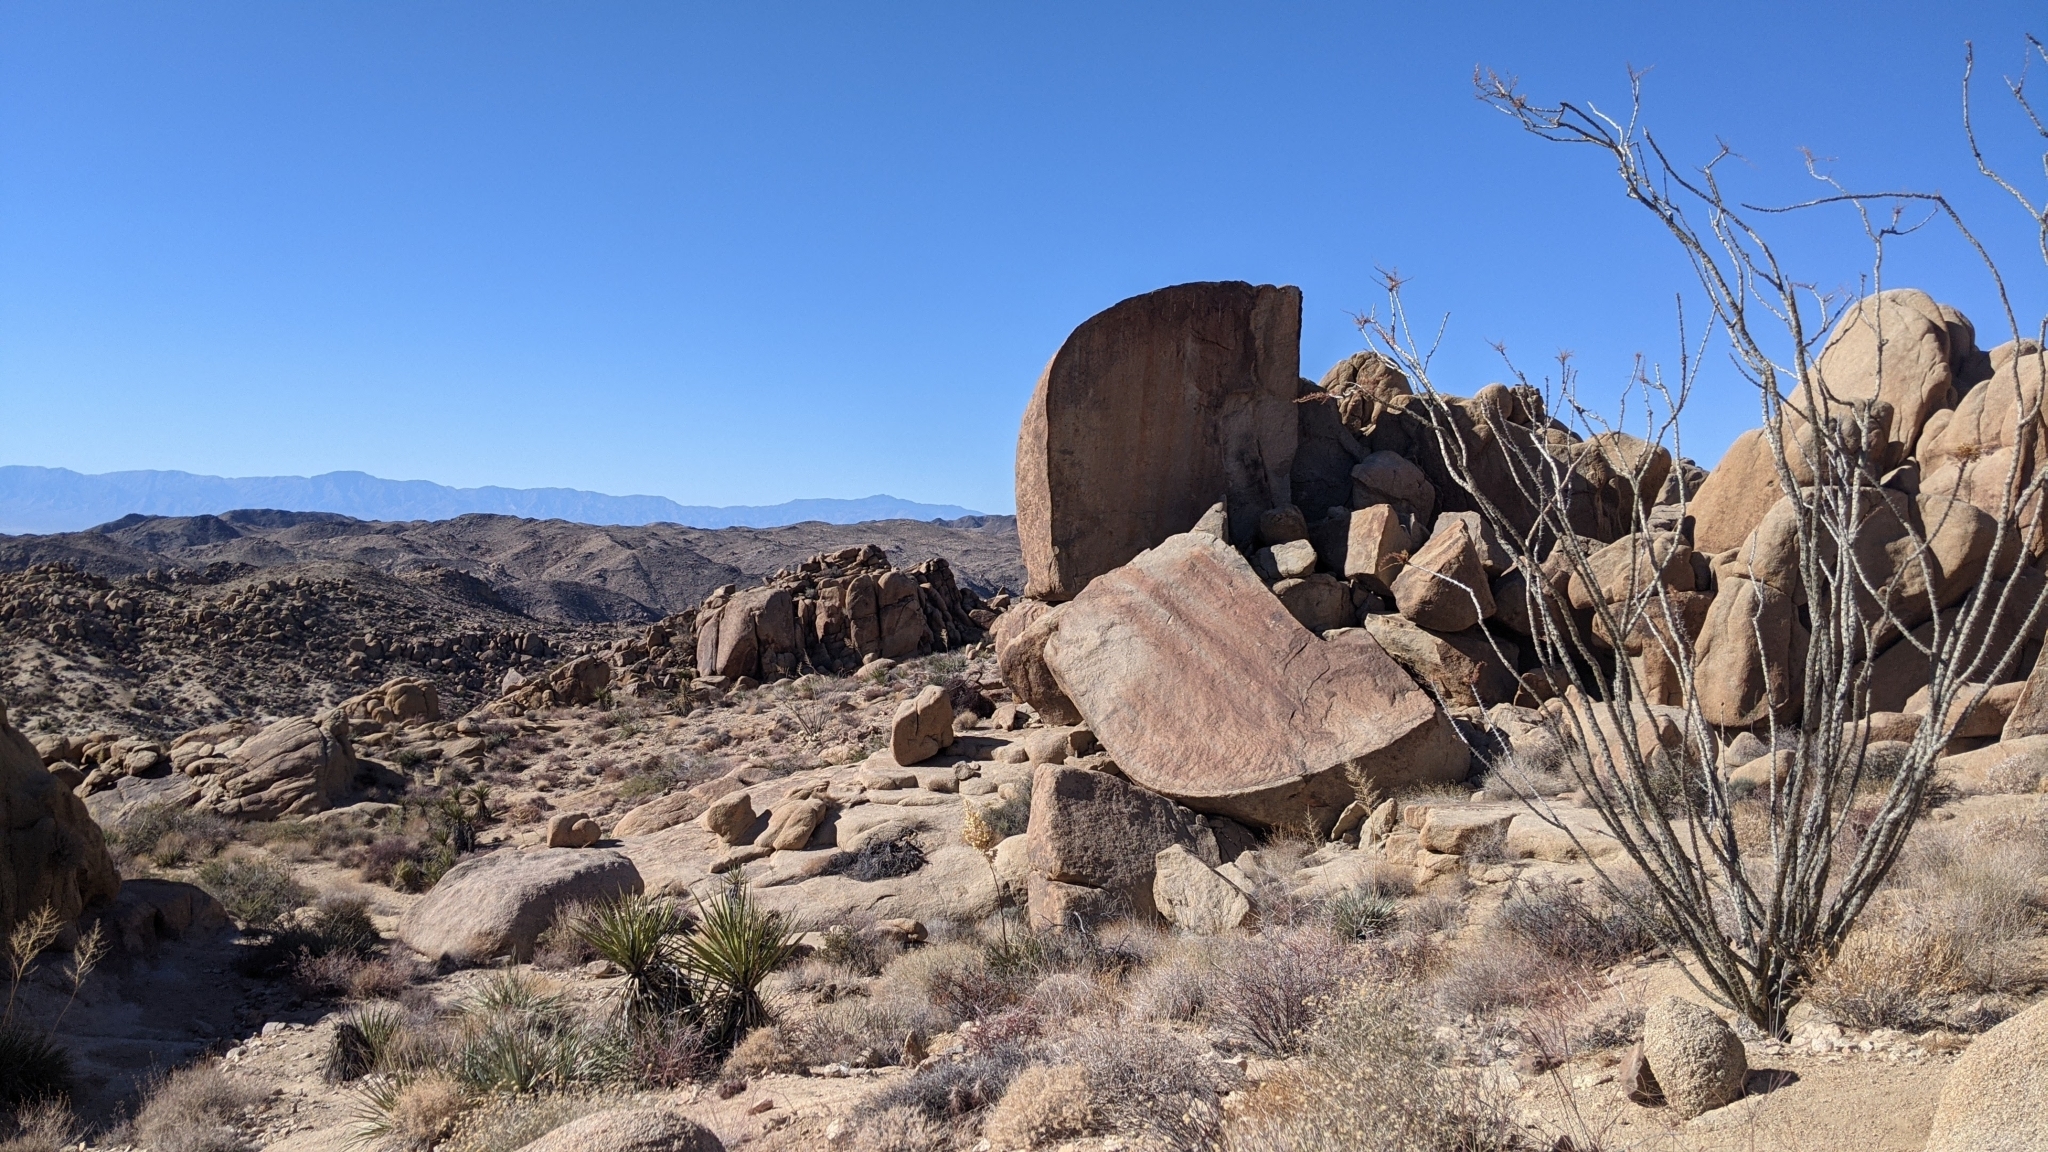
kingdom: Plantae
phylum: Tracheophyta
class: Magnoliopsida
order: Ericales
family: Fouquieriaceae
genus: Fouquieria
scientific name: Fouquieria splendens
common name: Vine-cactus
